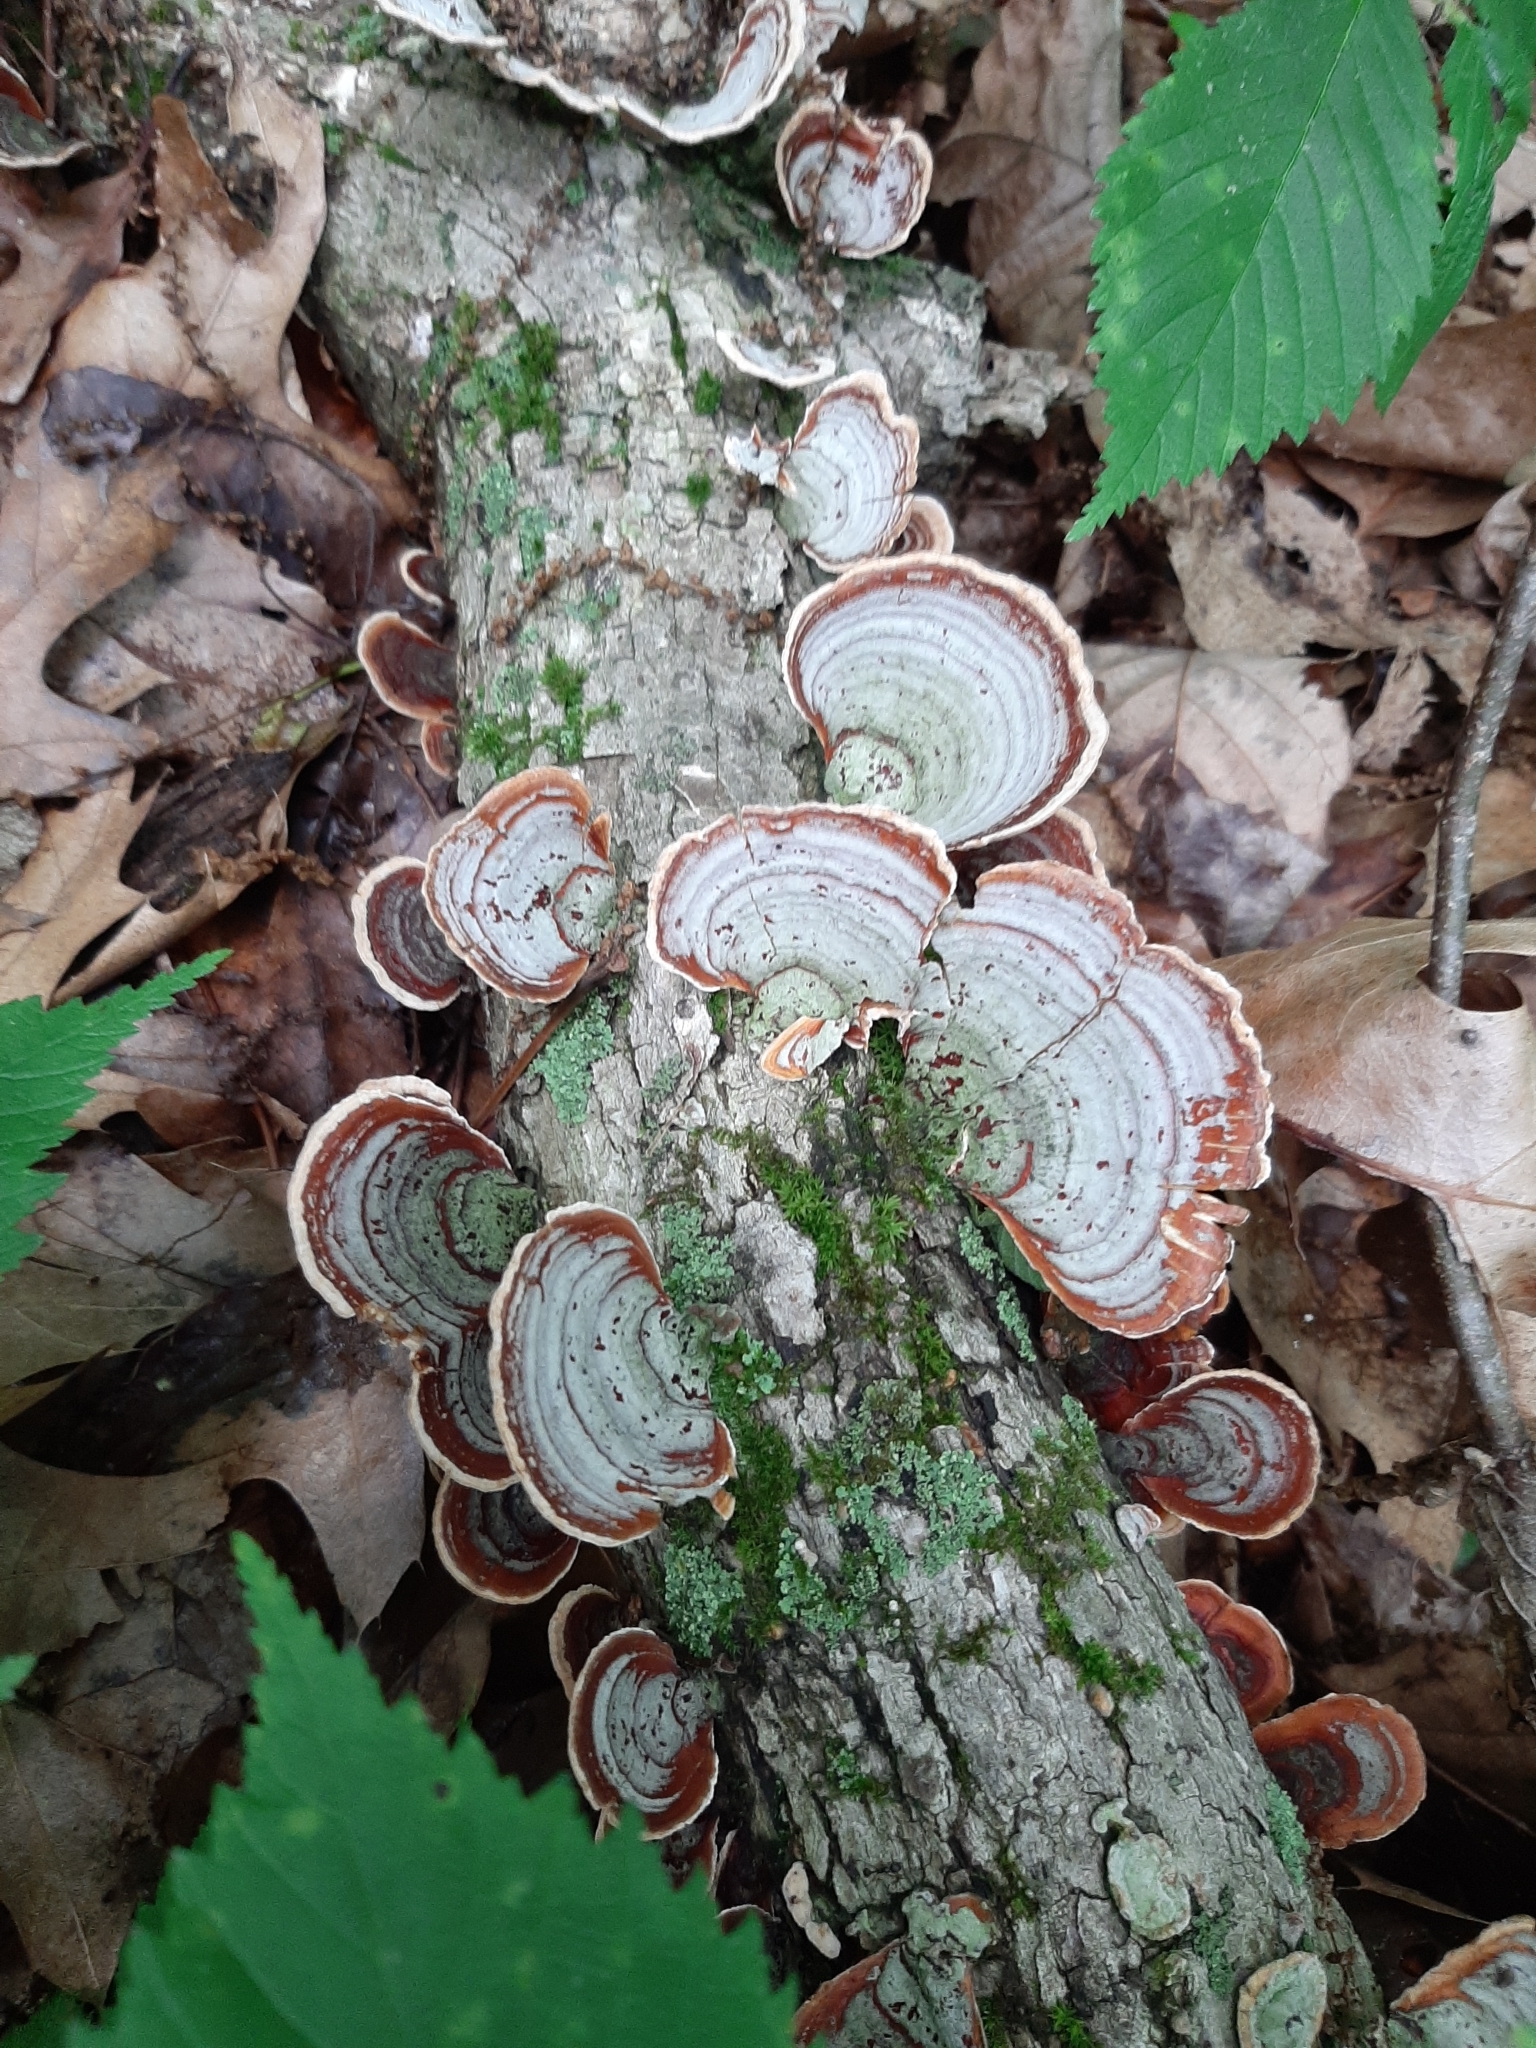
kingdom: Fungi
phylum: Basidiomycota
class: Agaricomycetes
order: Russulales
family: Stereaceae
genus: Stereum
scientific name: Stereum ostrea
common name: False turkeytail
